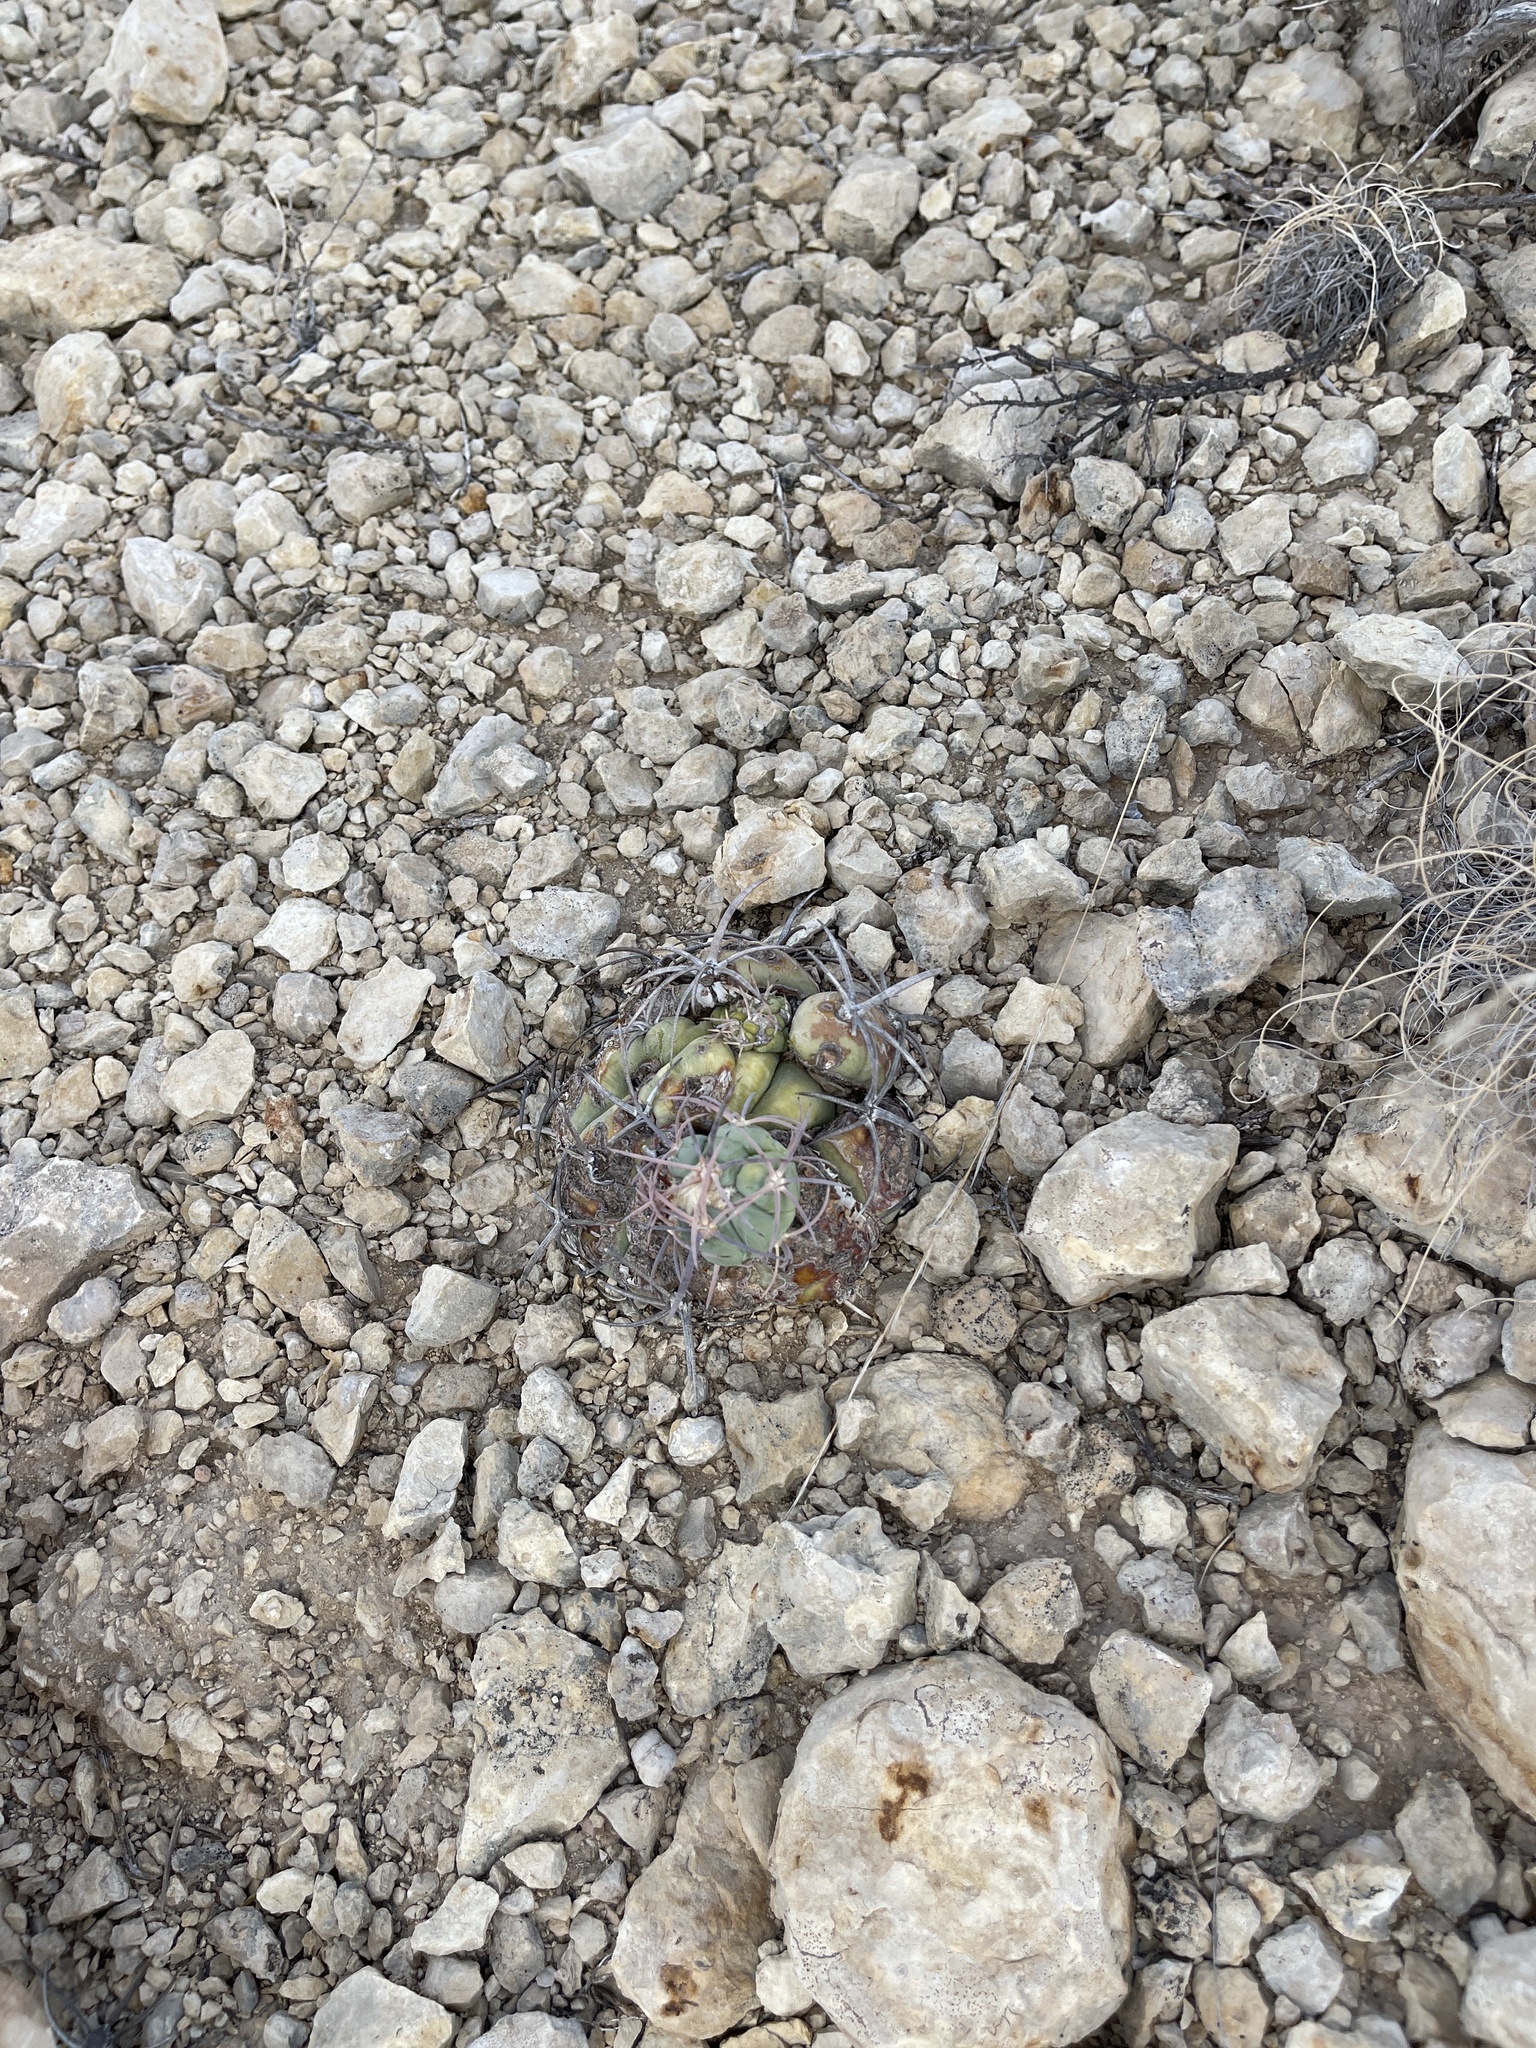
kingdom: Plantae
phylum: Tracheophyta
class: Magnoliopsida
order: Caryophyllales
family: Cactaceae
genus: Echinocactus
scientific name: Echinocactus horizonthalonius
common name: Devilshead
